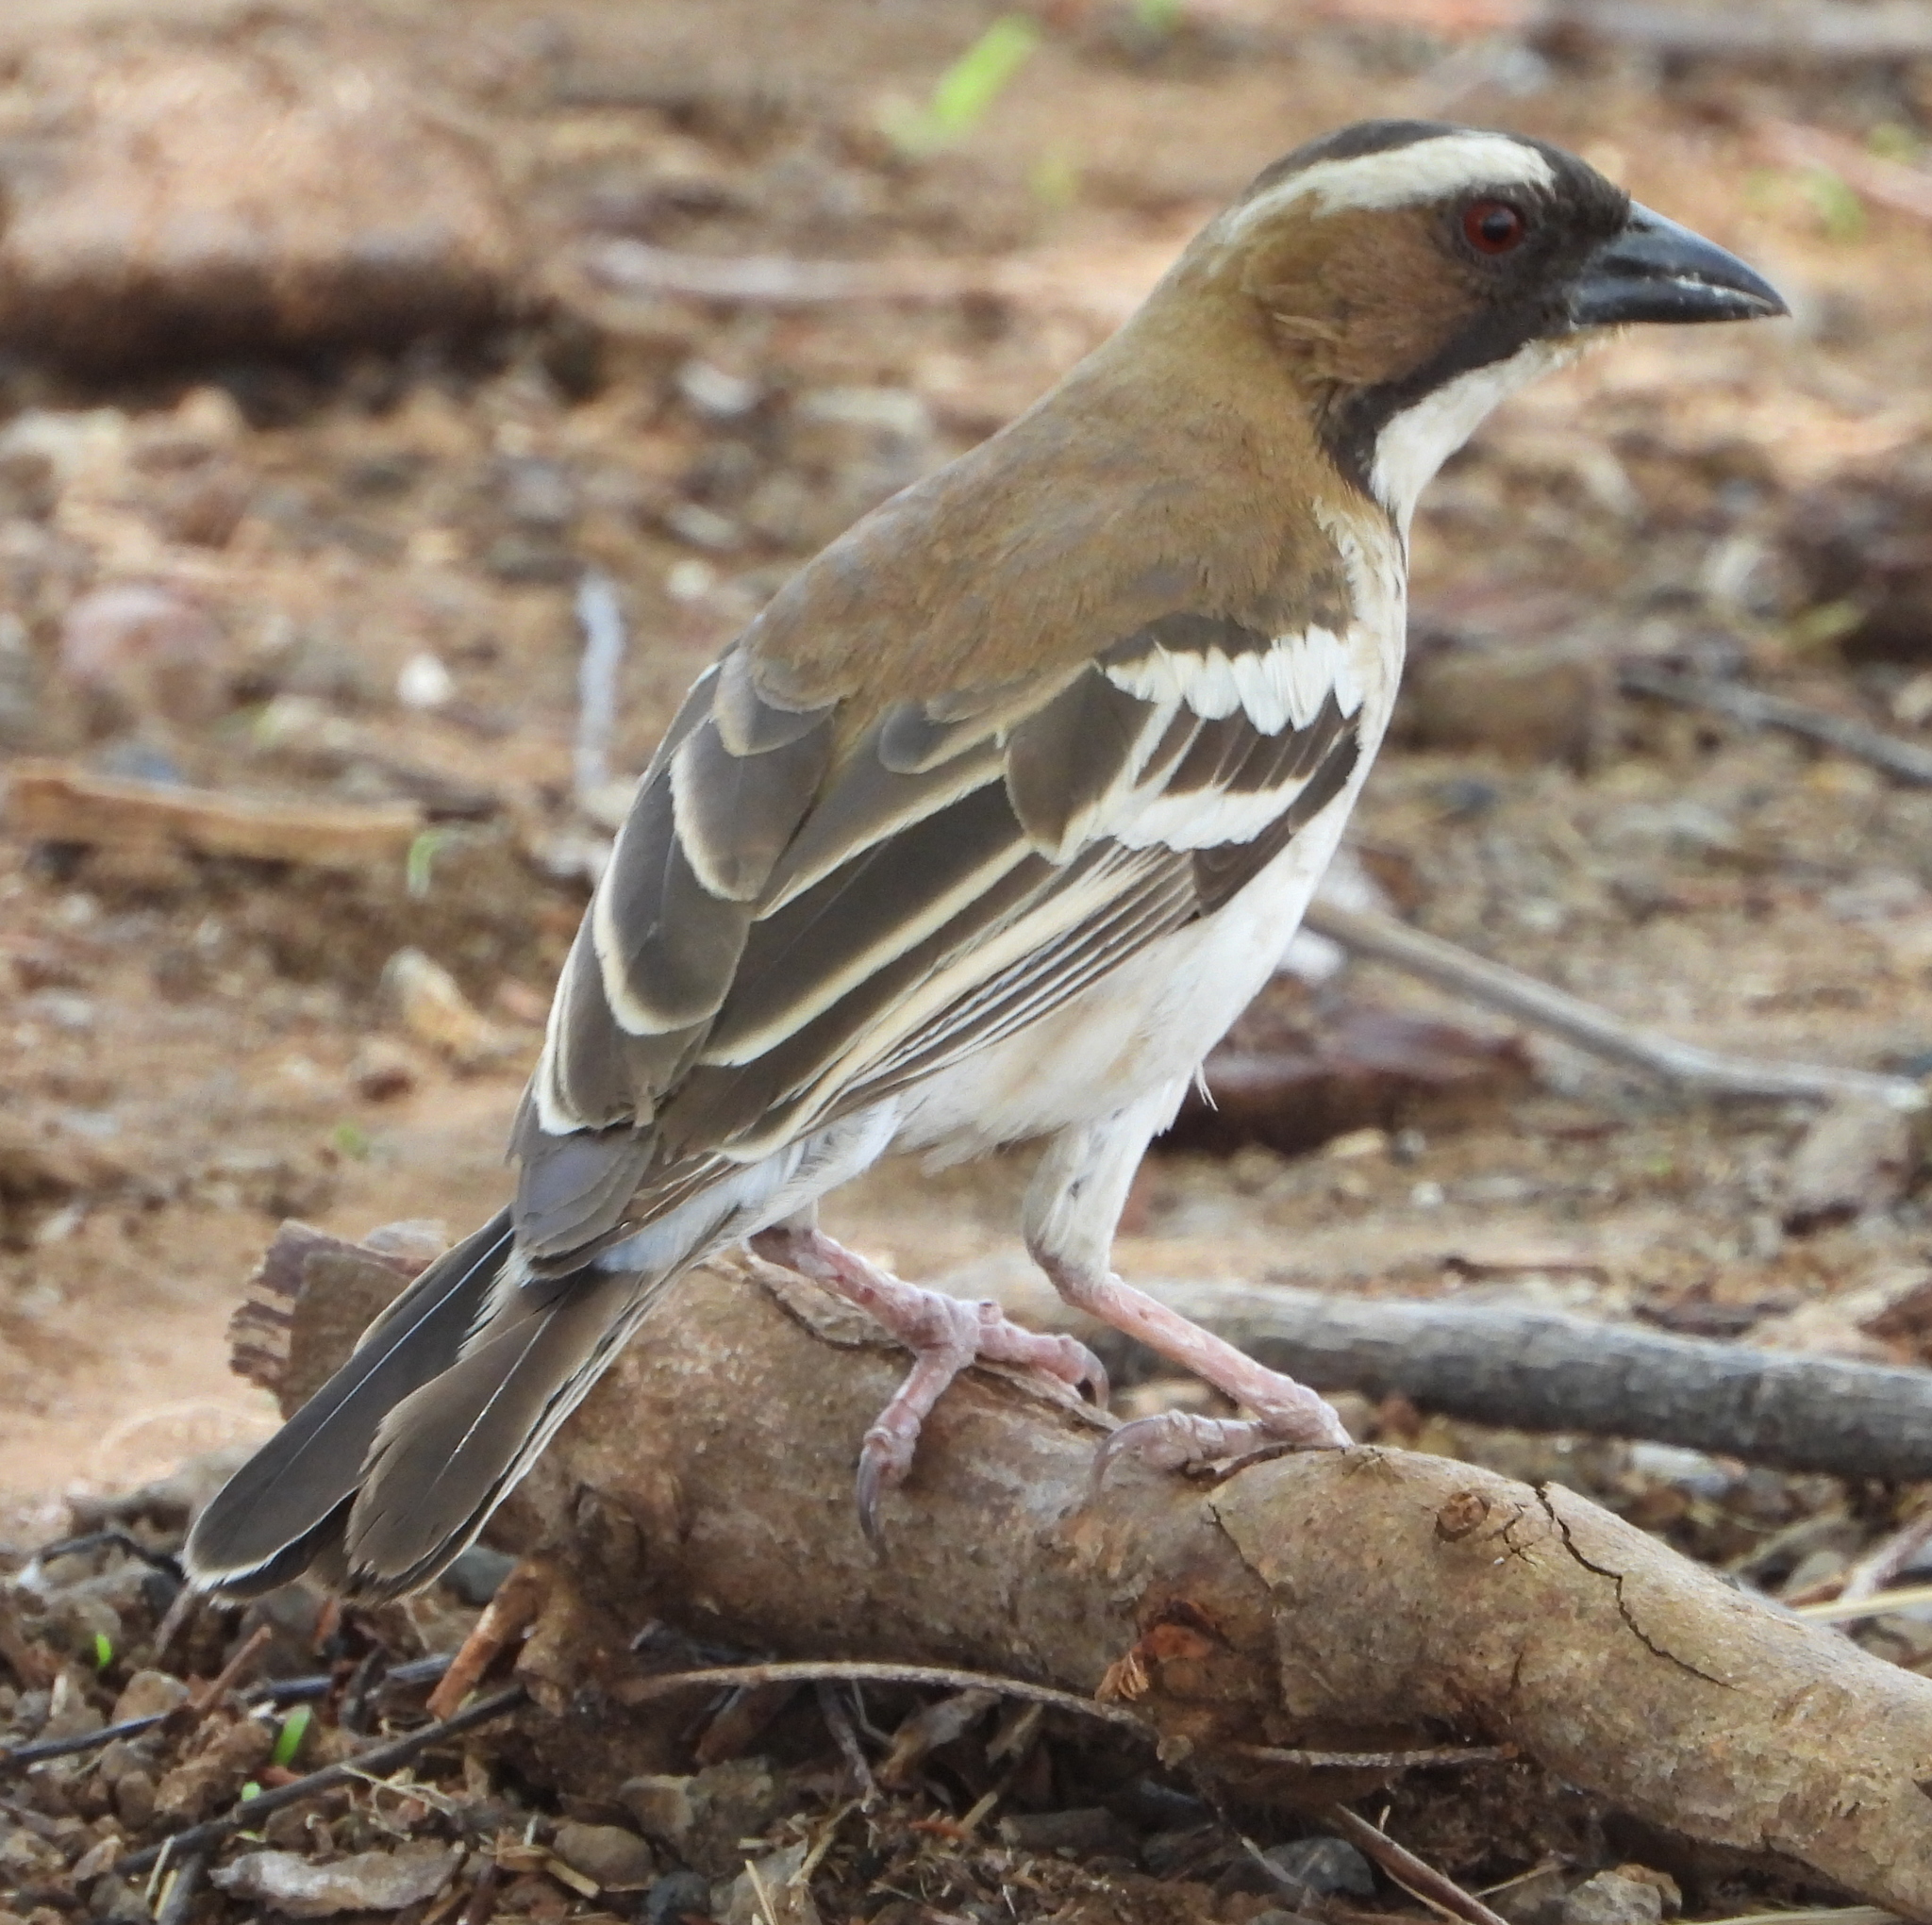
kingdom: Animalia
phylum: Chordata
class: Aves
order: Passeriformes
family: Passeridae
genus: Plocepasser
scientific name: Plocepasser mahali
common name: White-browed sparrow-weaver
